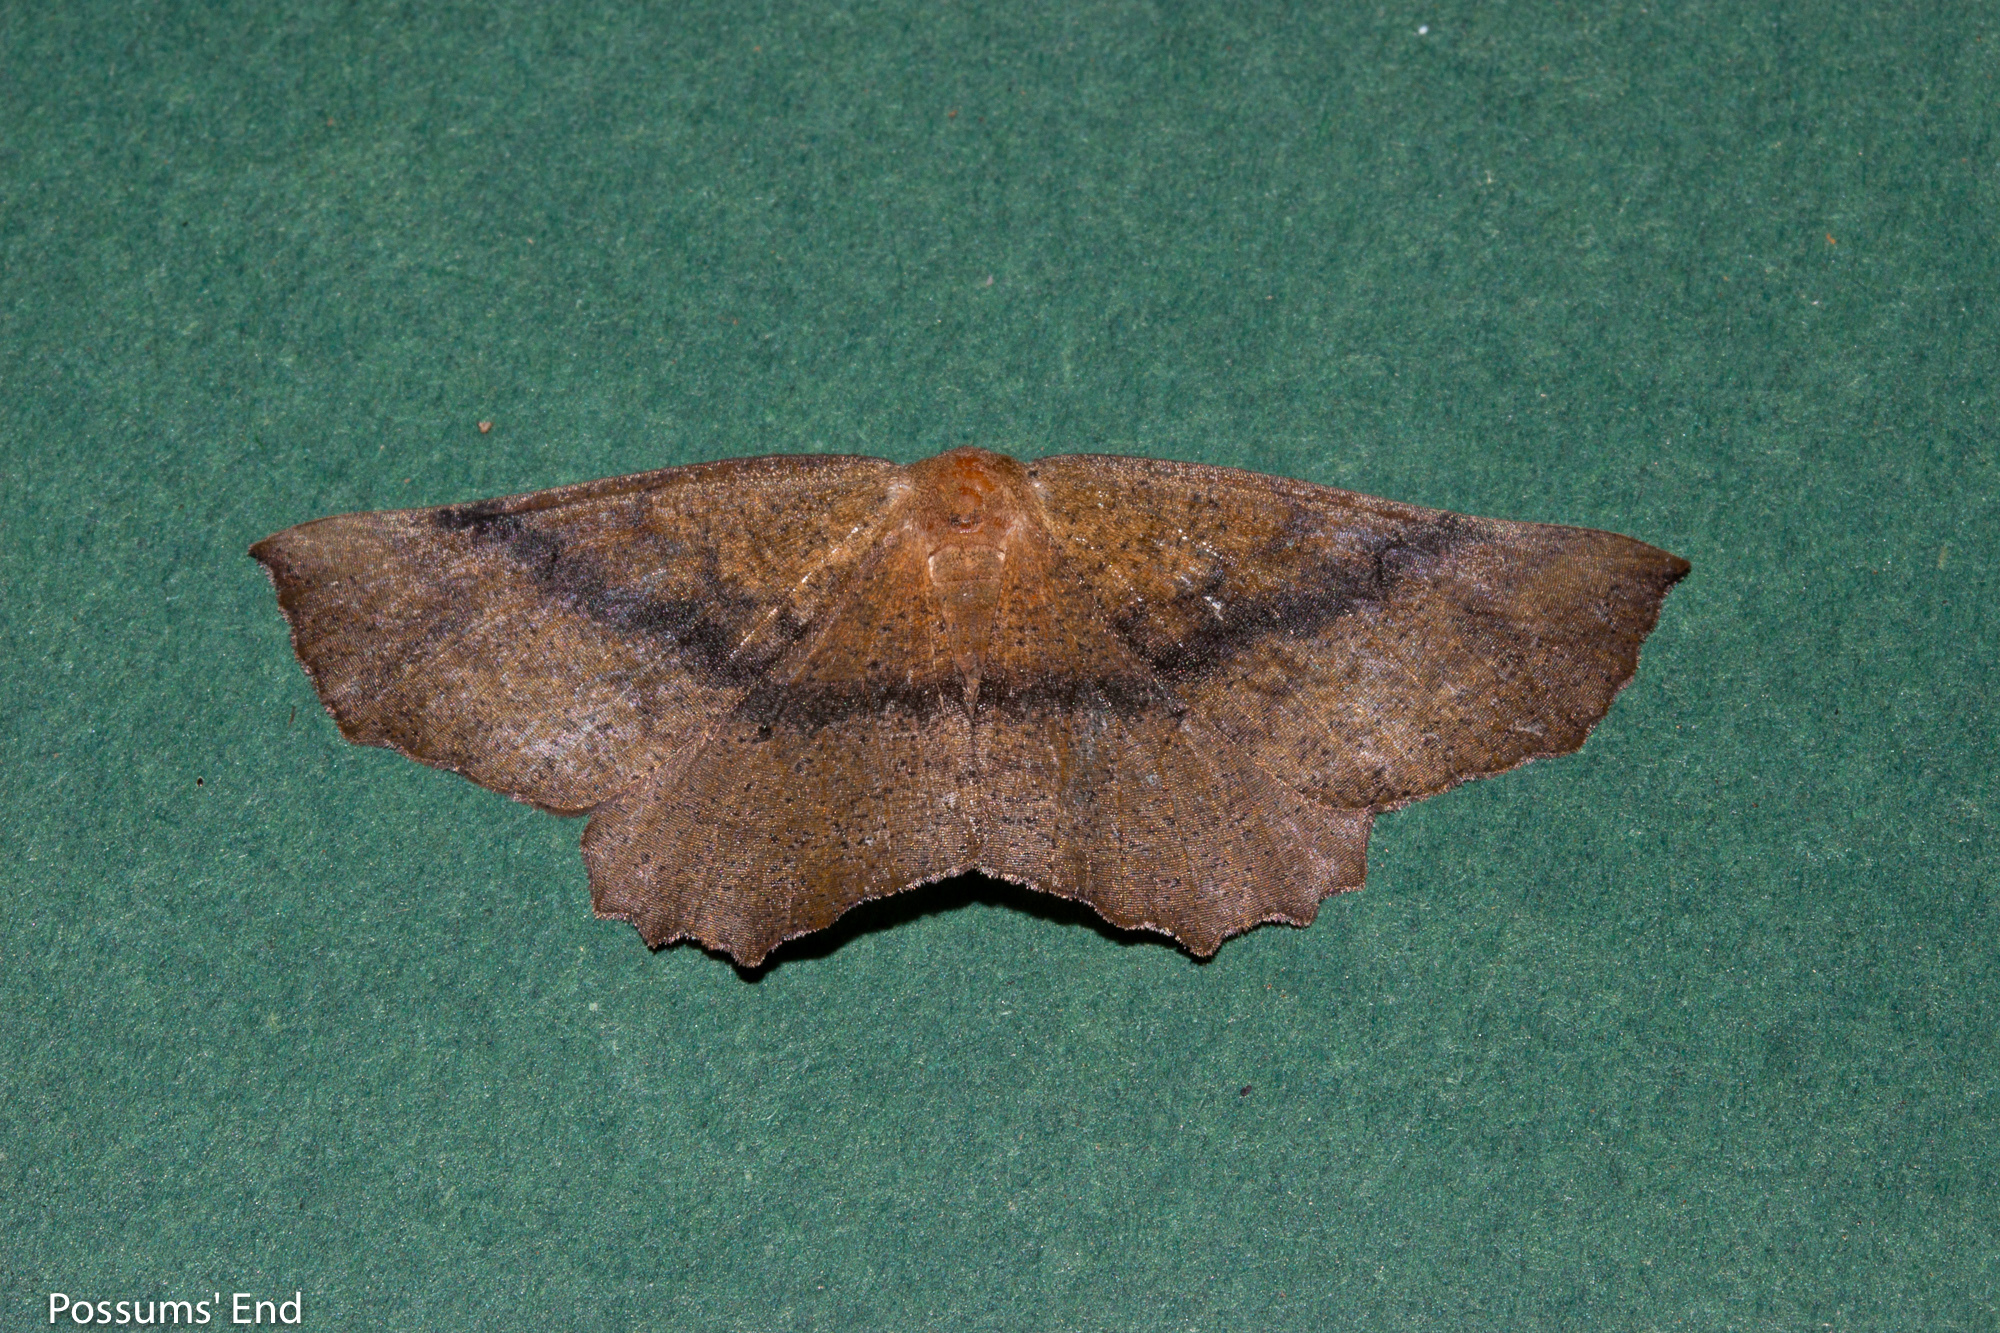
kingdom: Animalia
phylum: Arthropoda
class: Insecta
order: Lepidoptera
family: Geometridae
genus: Xyridacma
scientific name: Xyridacma ustaria
